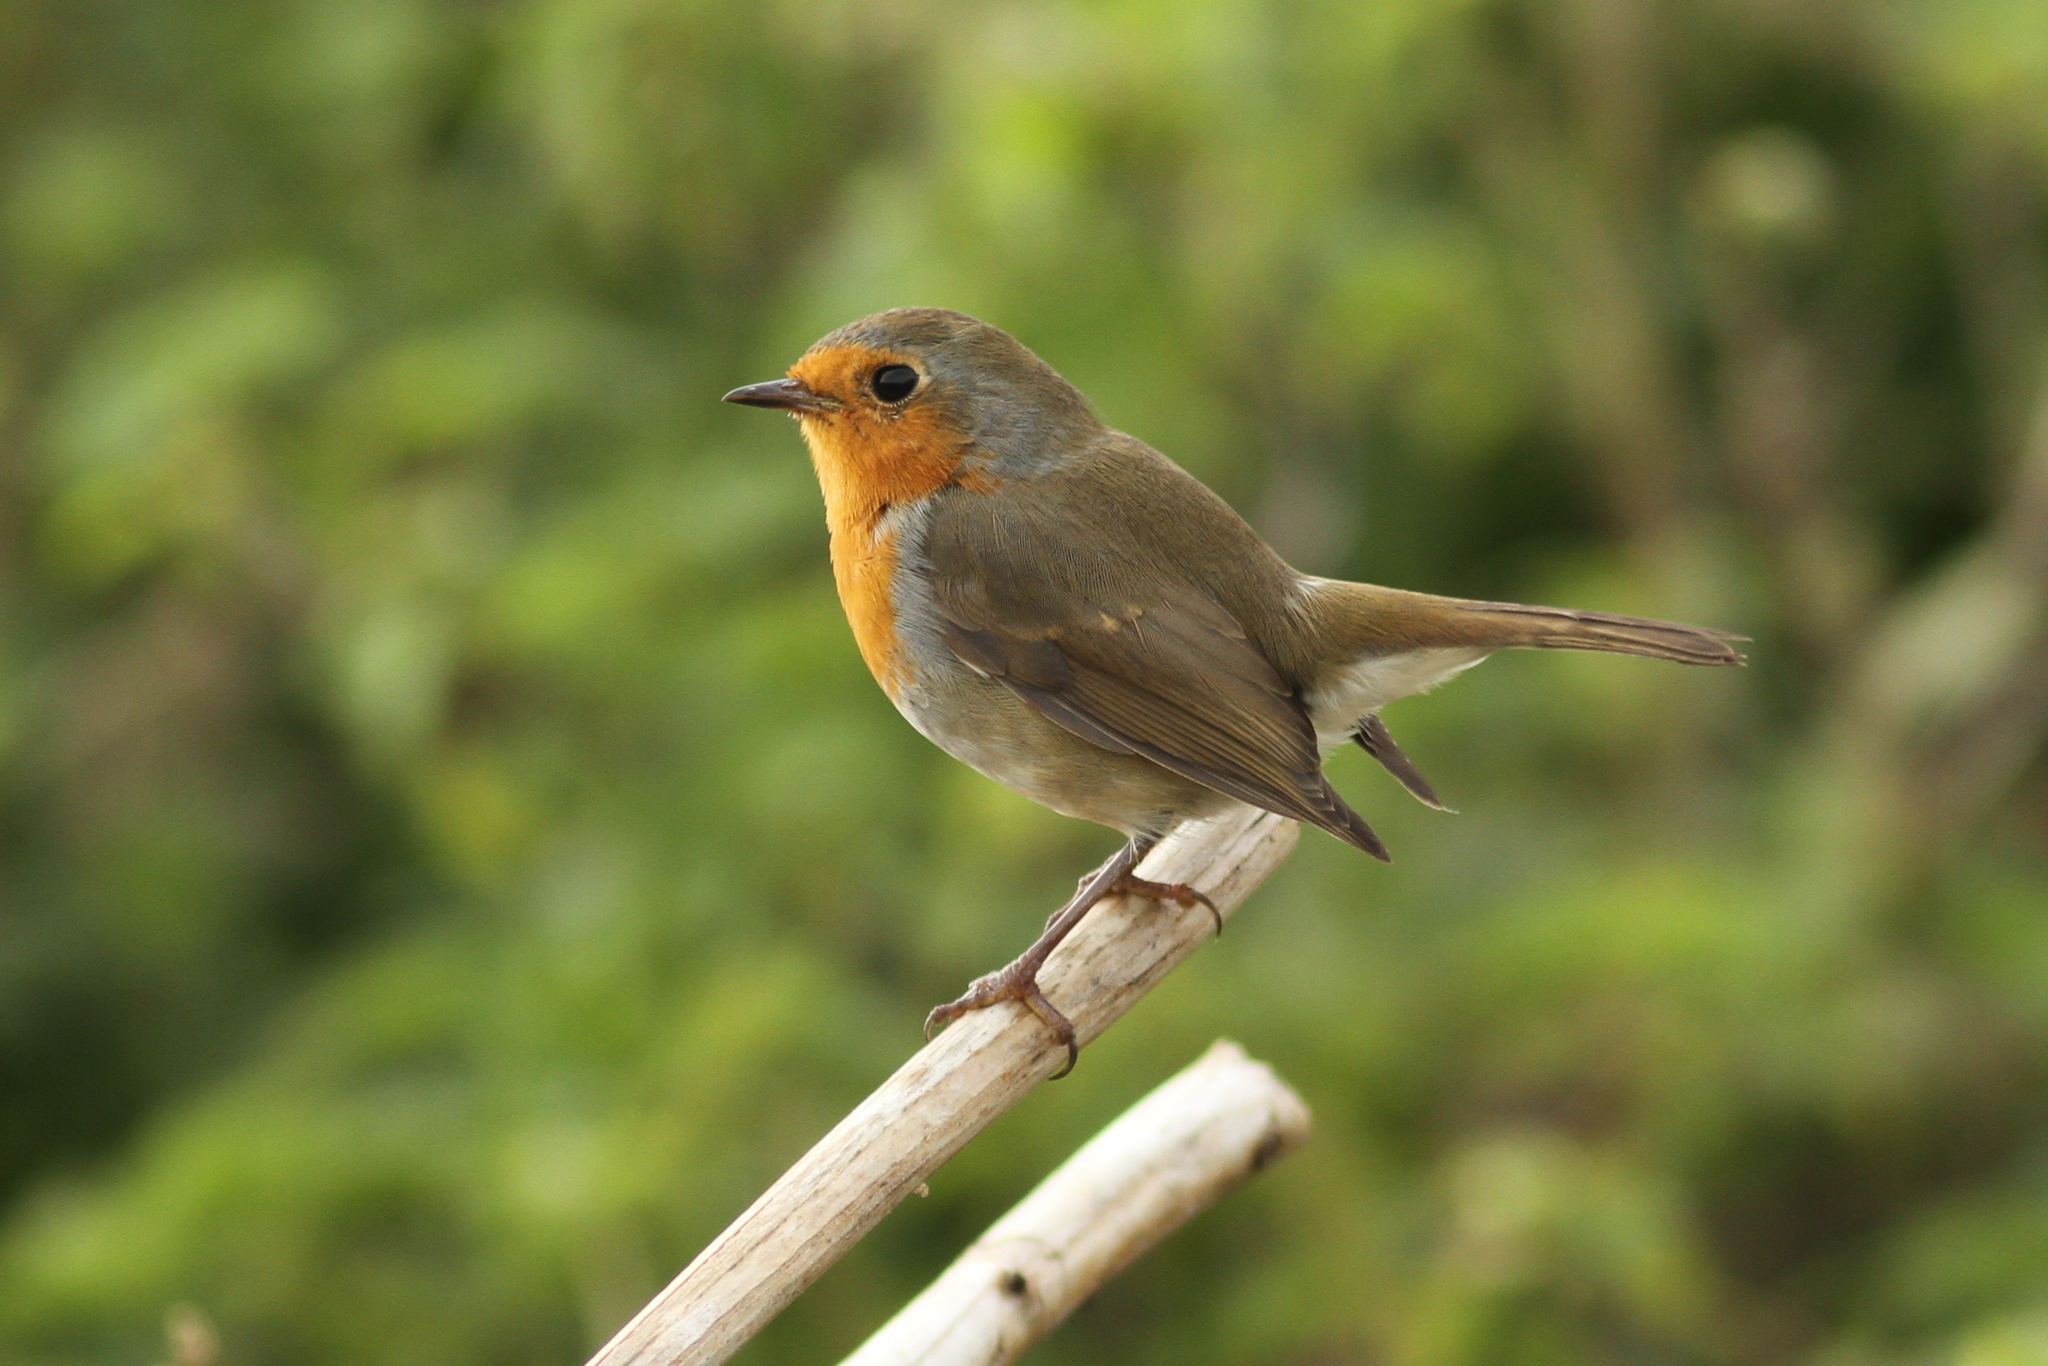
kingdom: Animalia
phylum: Chordata
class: Aves
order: Passeriformes
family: Muscicapidae
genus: Erithacus
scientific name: Erithacus rubecula
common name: European robin
